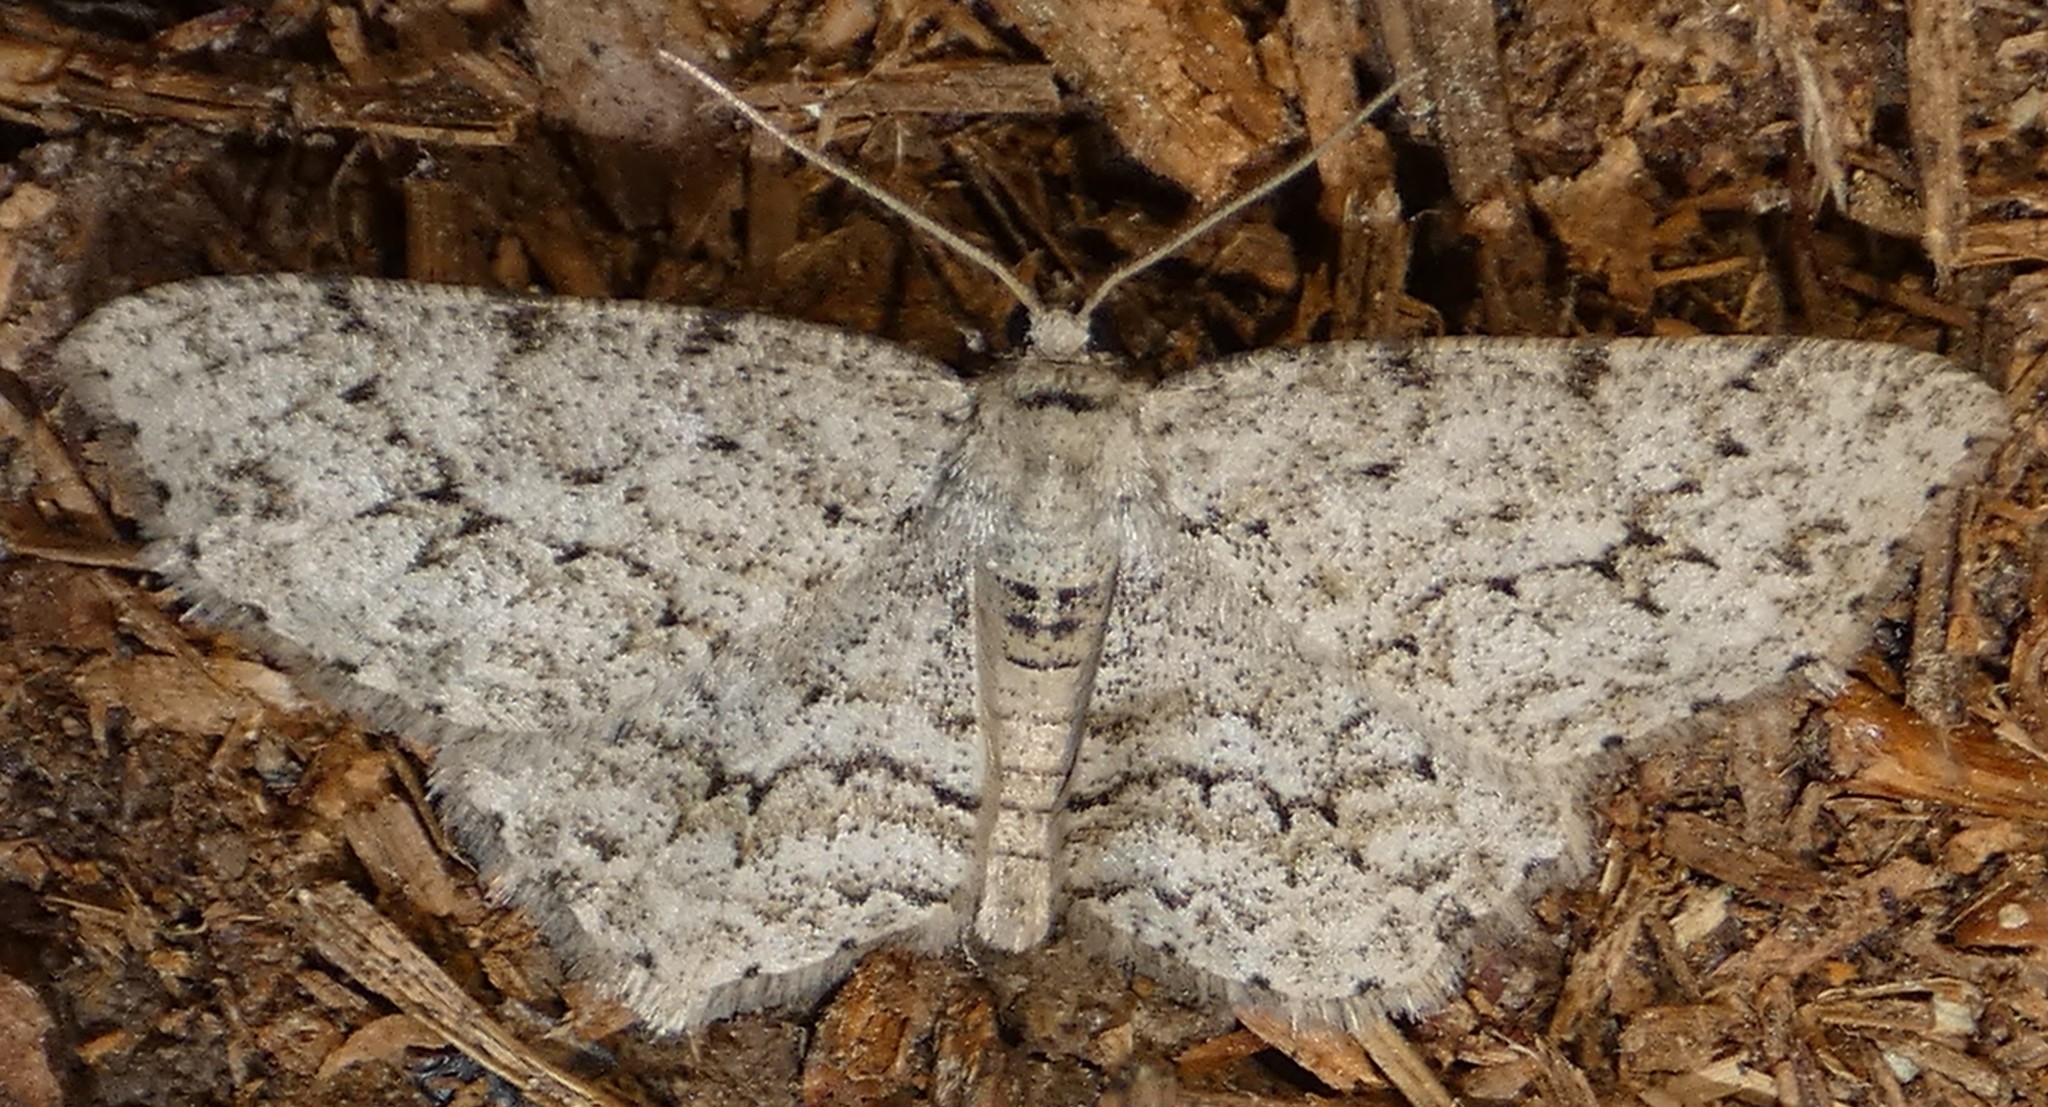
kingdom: Animalia
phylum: Arthropoda
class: Insecta
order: Lepidoptera
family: Geometridae
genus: Ectropis
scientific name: Ectropis crepuscularia
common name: Engrailed
